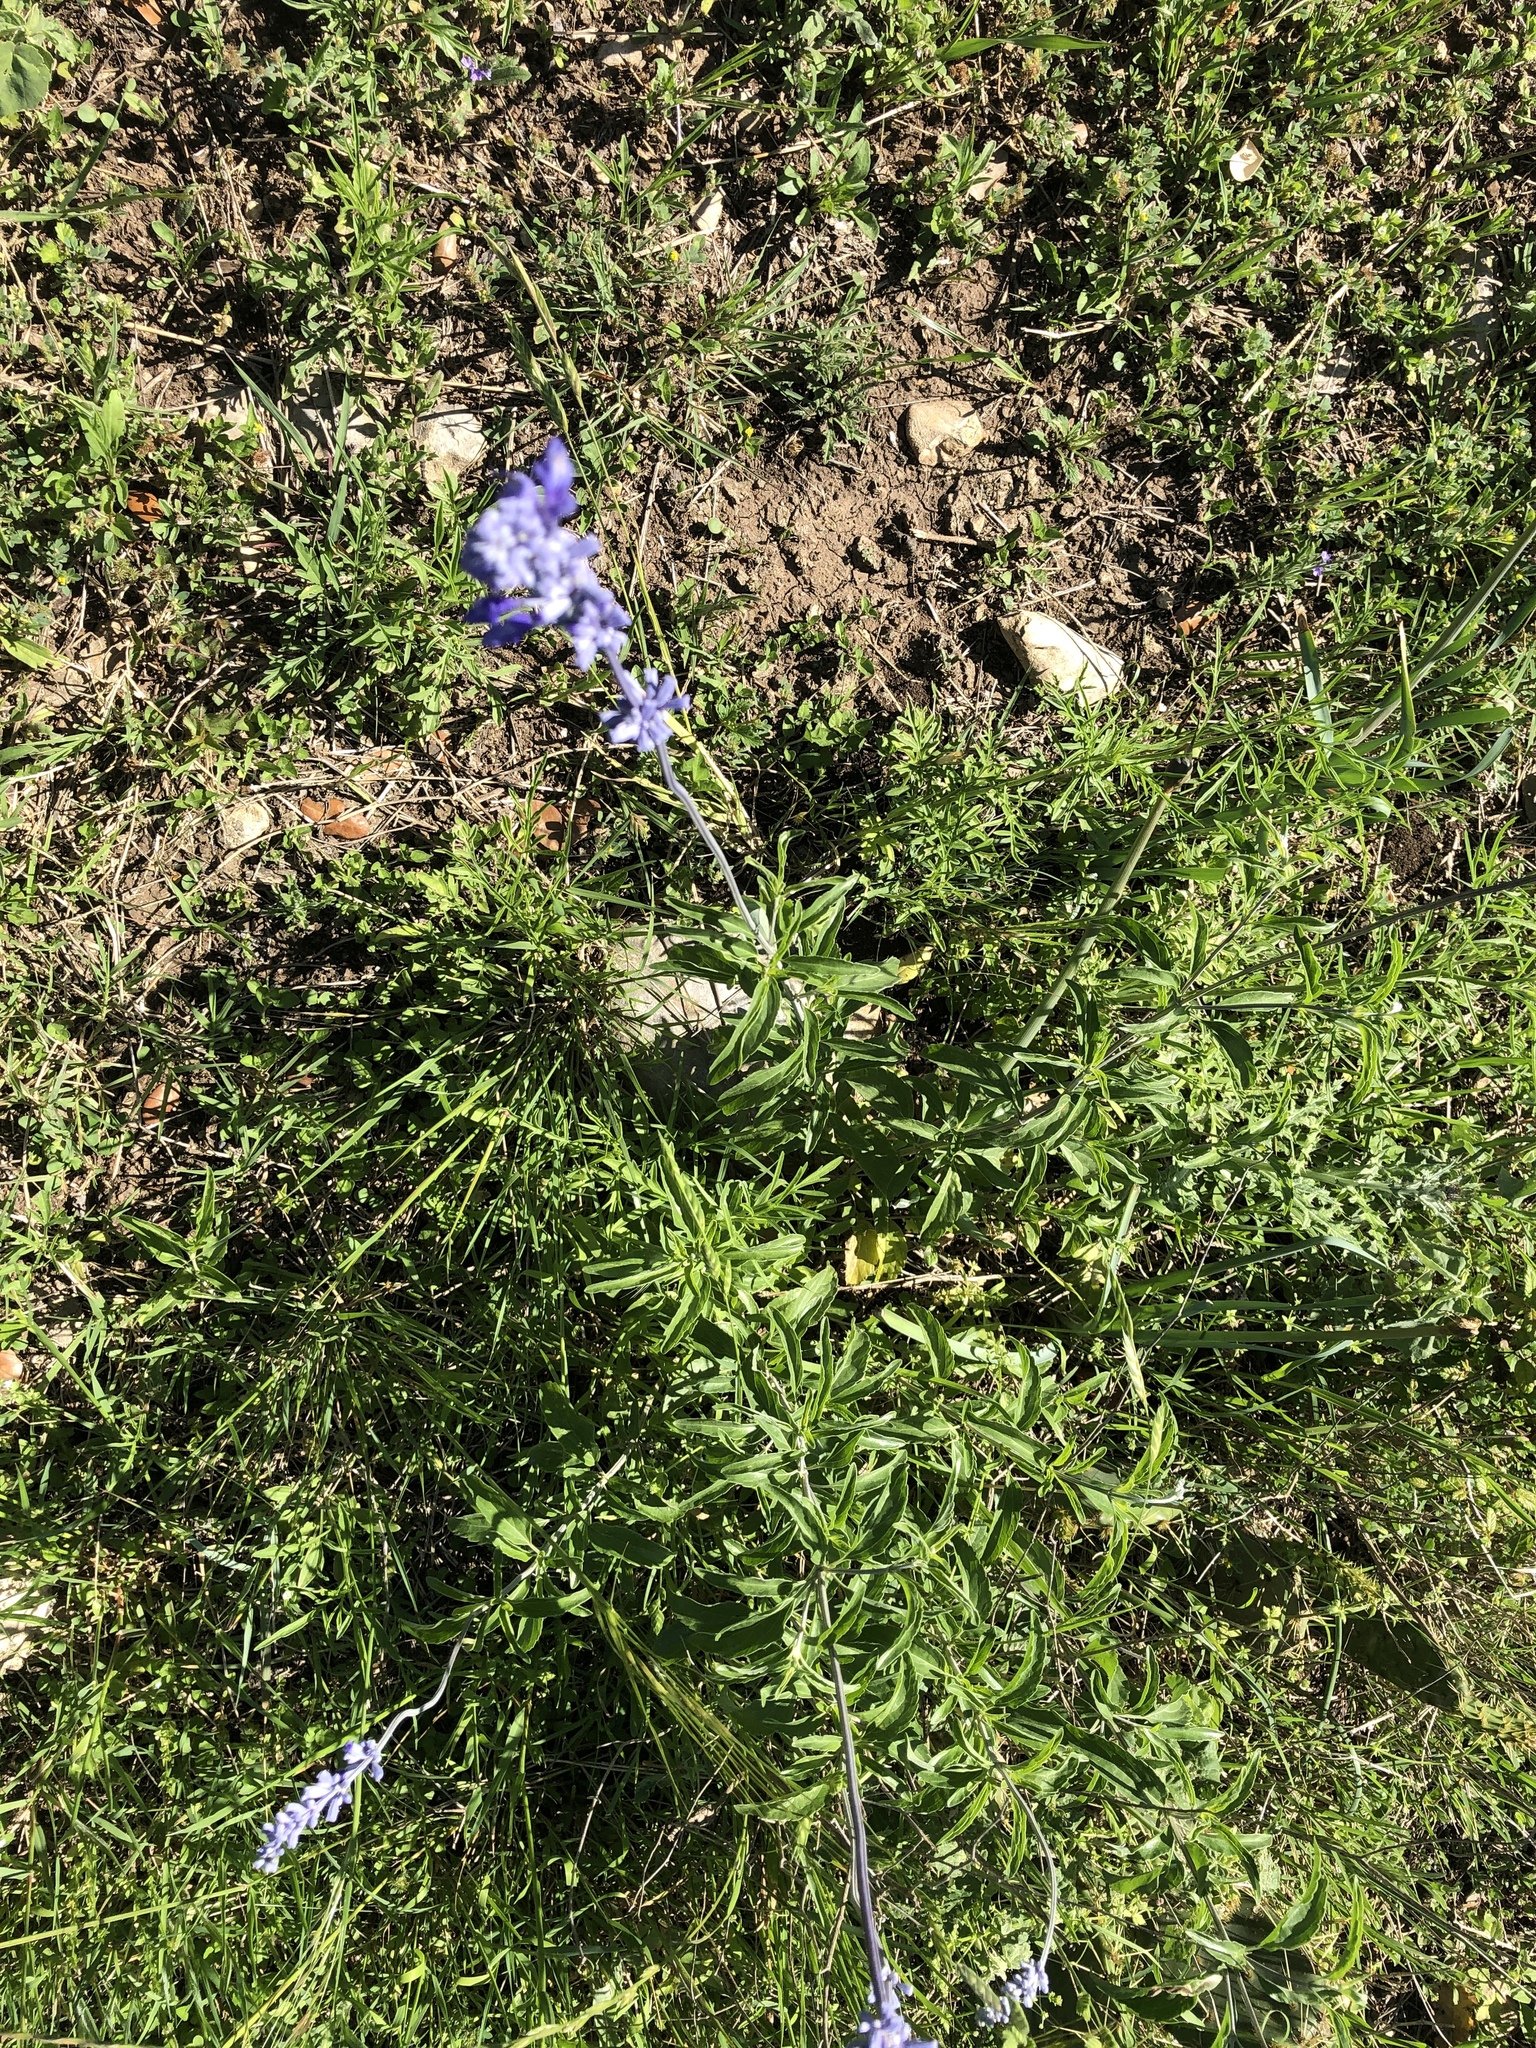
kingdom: Plantae
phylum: Tracheophyta
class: Magnoliopsida
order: Lamiales
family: Lamiaceae
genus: Salvia
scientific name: Salvia farinacea
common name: Mealy sage
